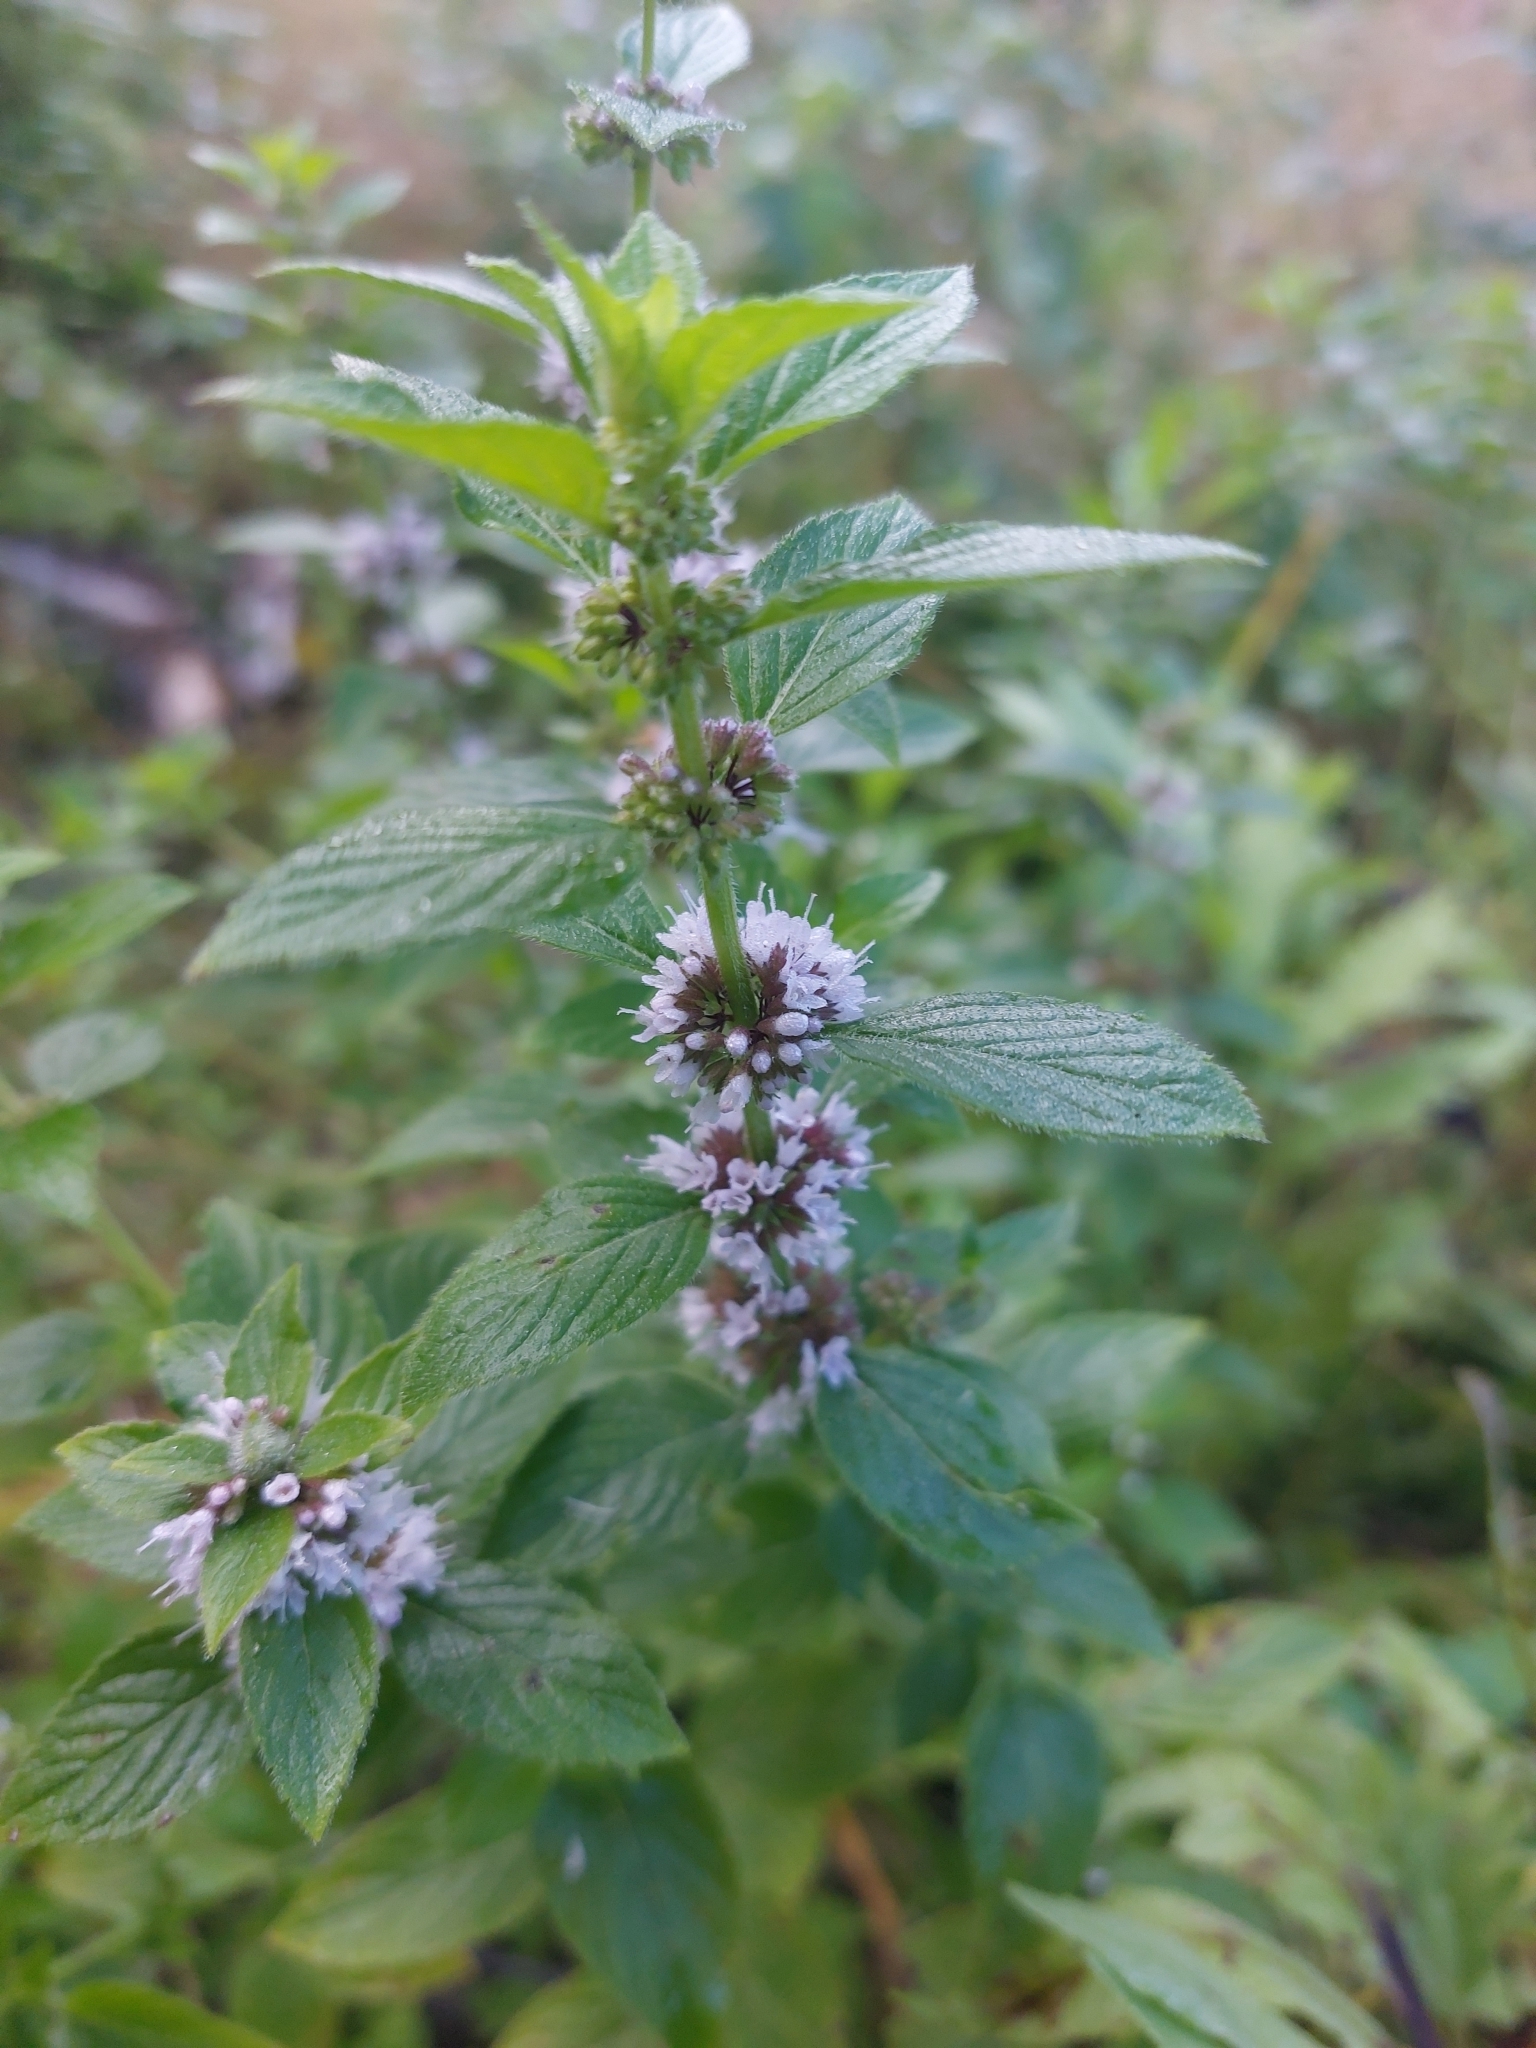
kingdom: Plantae
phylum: Tracheophyta
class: Magnoliopsida
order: Lamiales
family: Lamiaceae
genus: Mentha
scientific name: Mentha canadensis
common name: American corn mint
